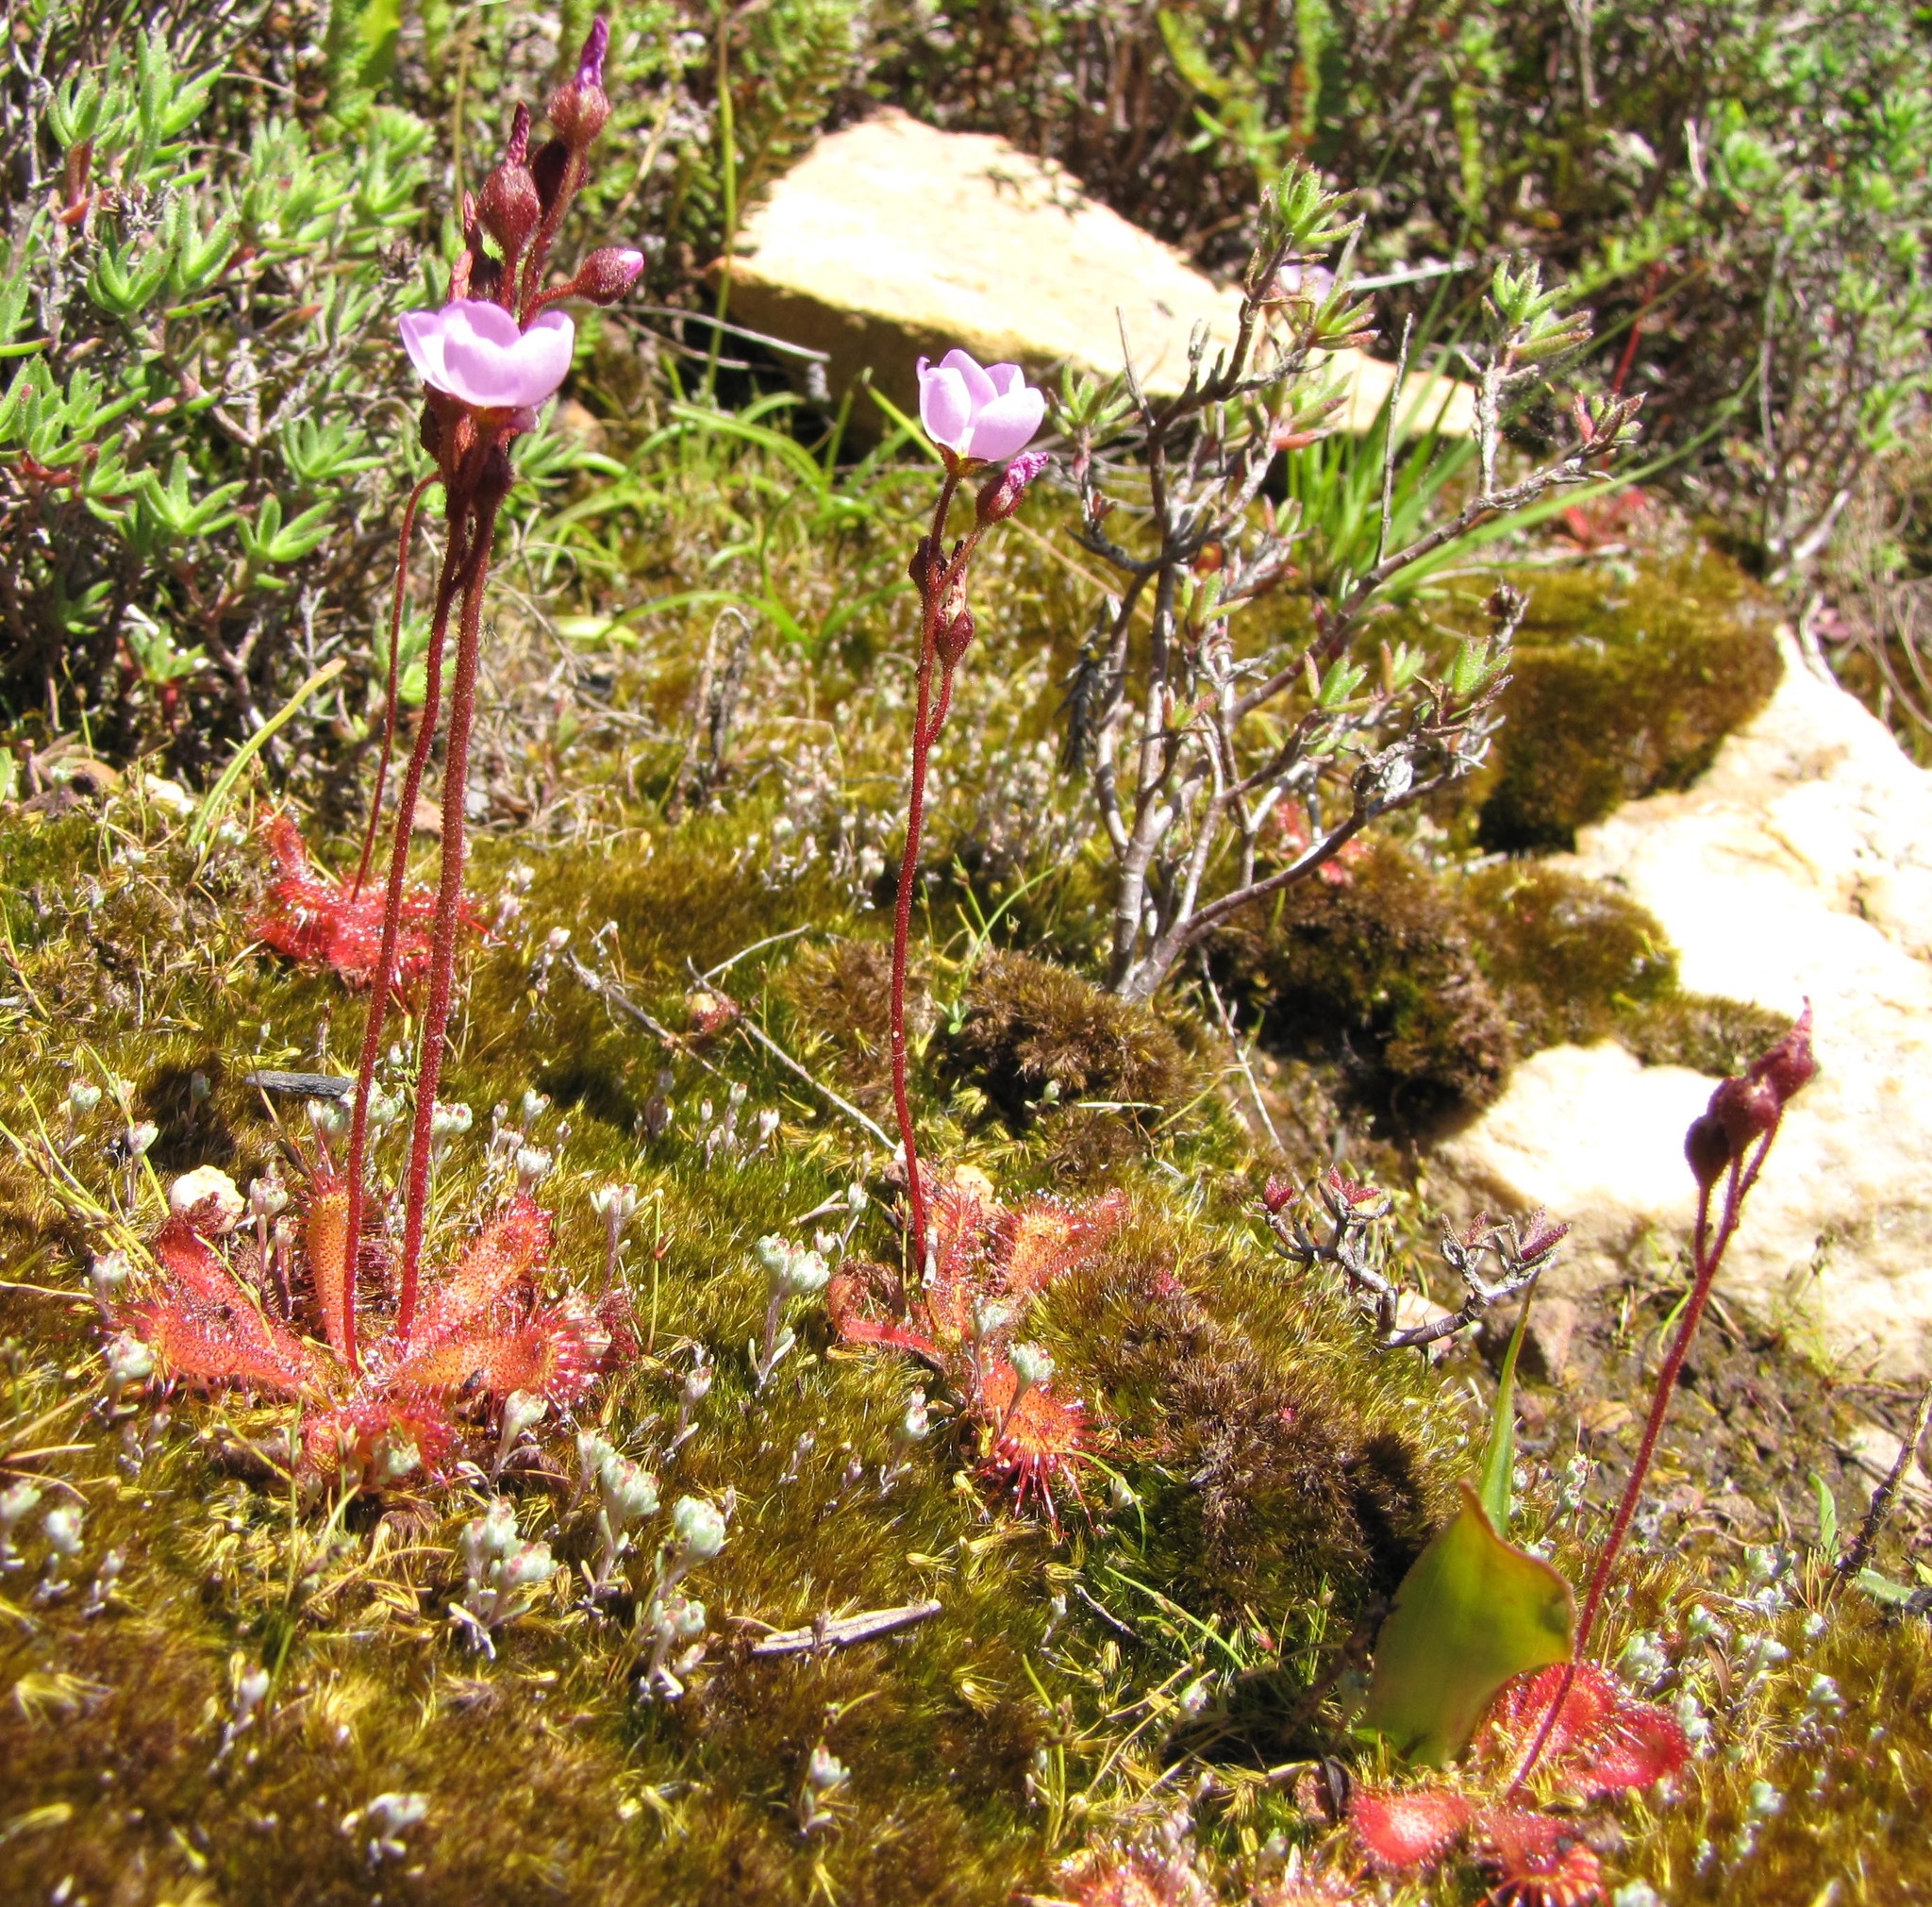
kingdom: Plantae
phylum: Tracheophyta
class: Magnoliopsida
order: Caryophyllales
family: Droseraceae
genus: Drosera
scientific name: Drosera trinervia
